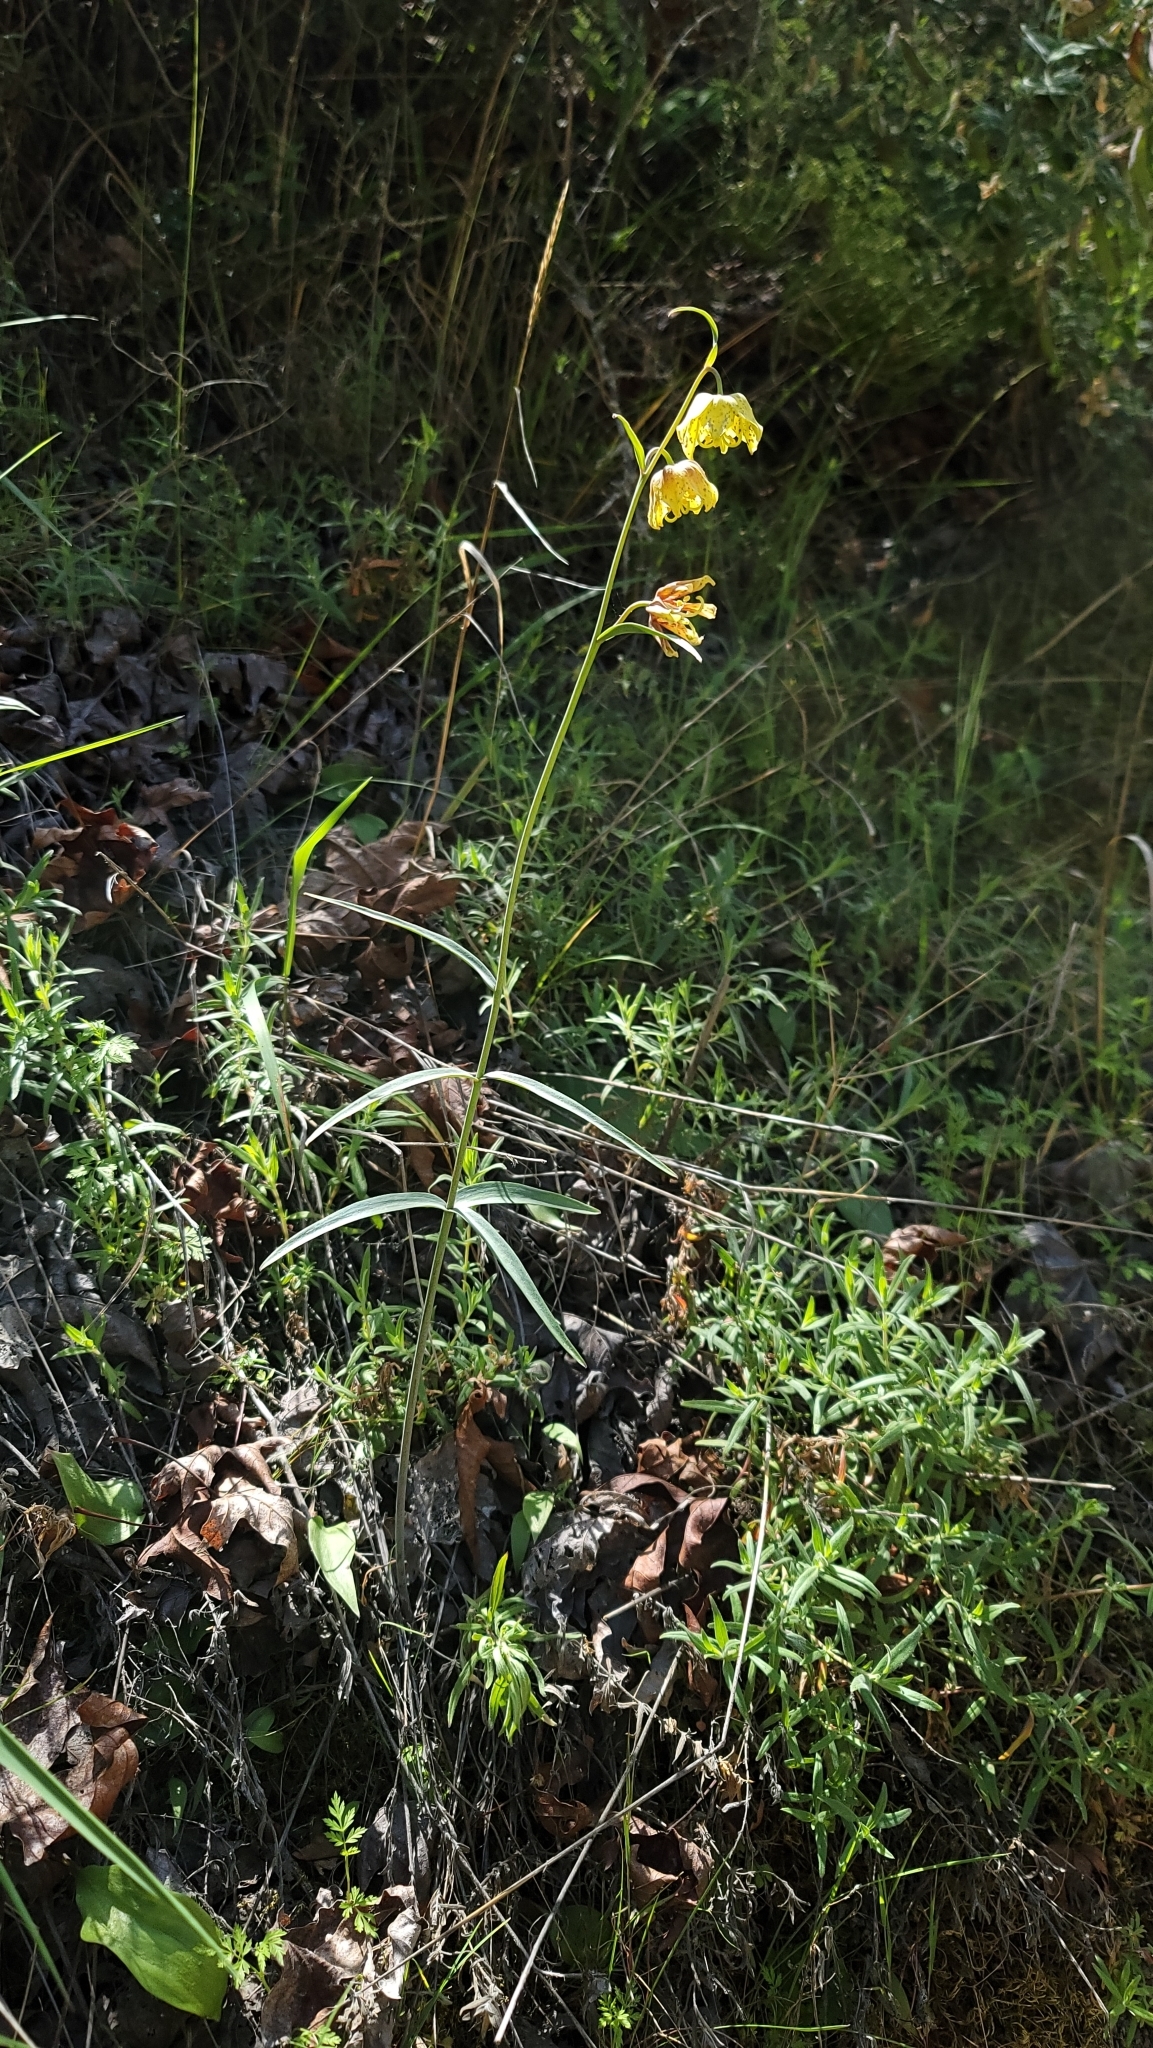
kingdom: Plantae
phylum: Tracheophyta
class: Liliopsida
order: Liliales
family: Liliaceae
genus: Fritillaria
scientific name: Fritillaria ojaiensis
